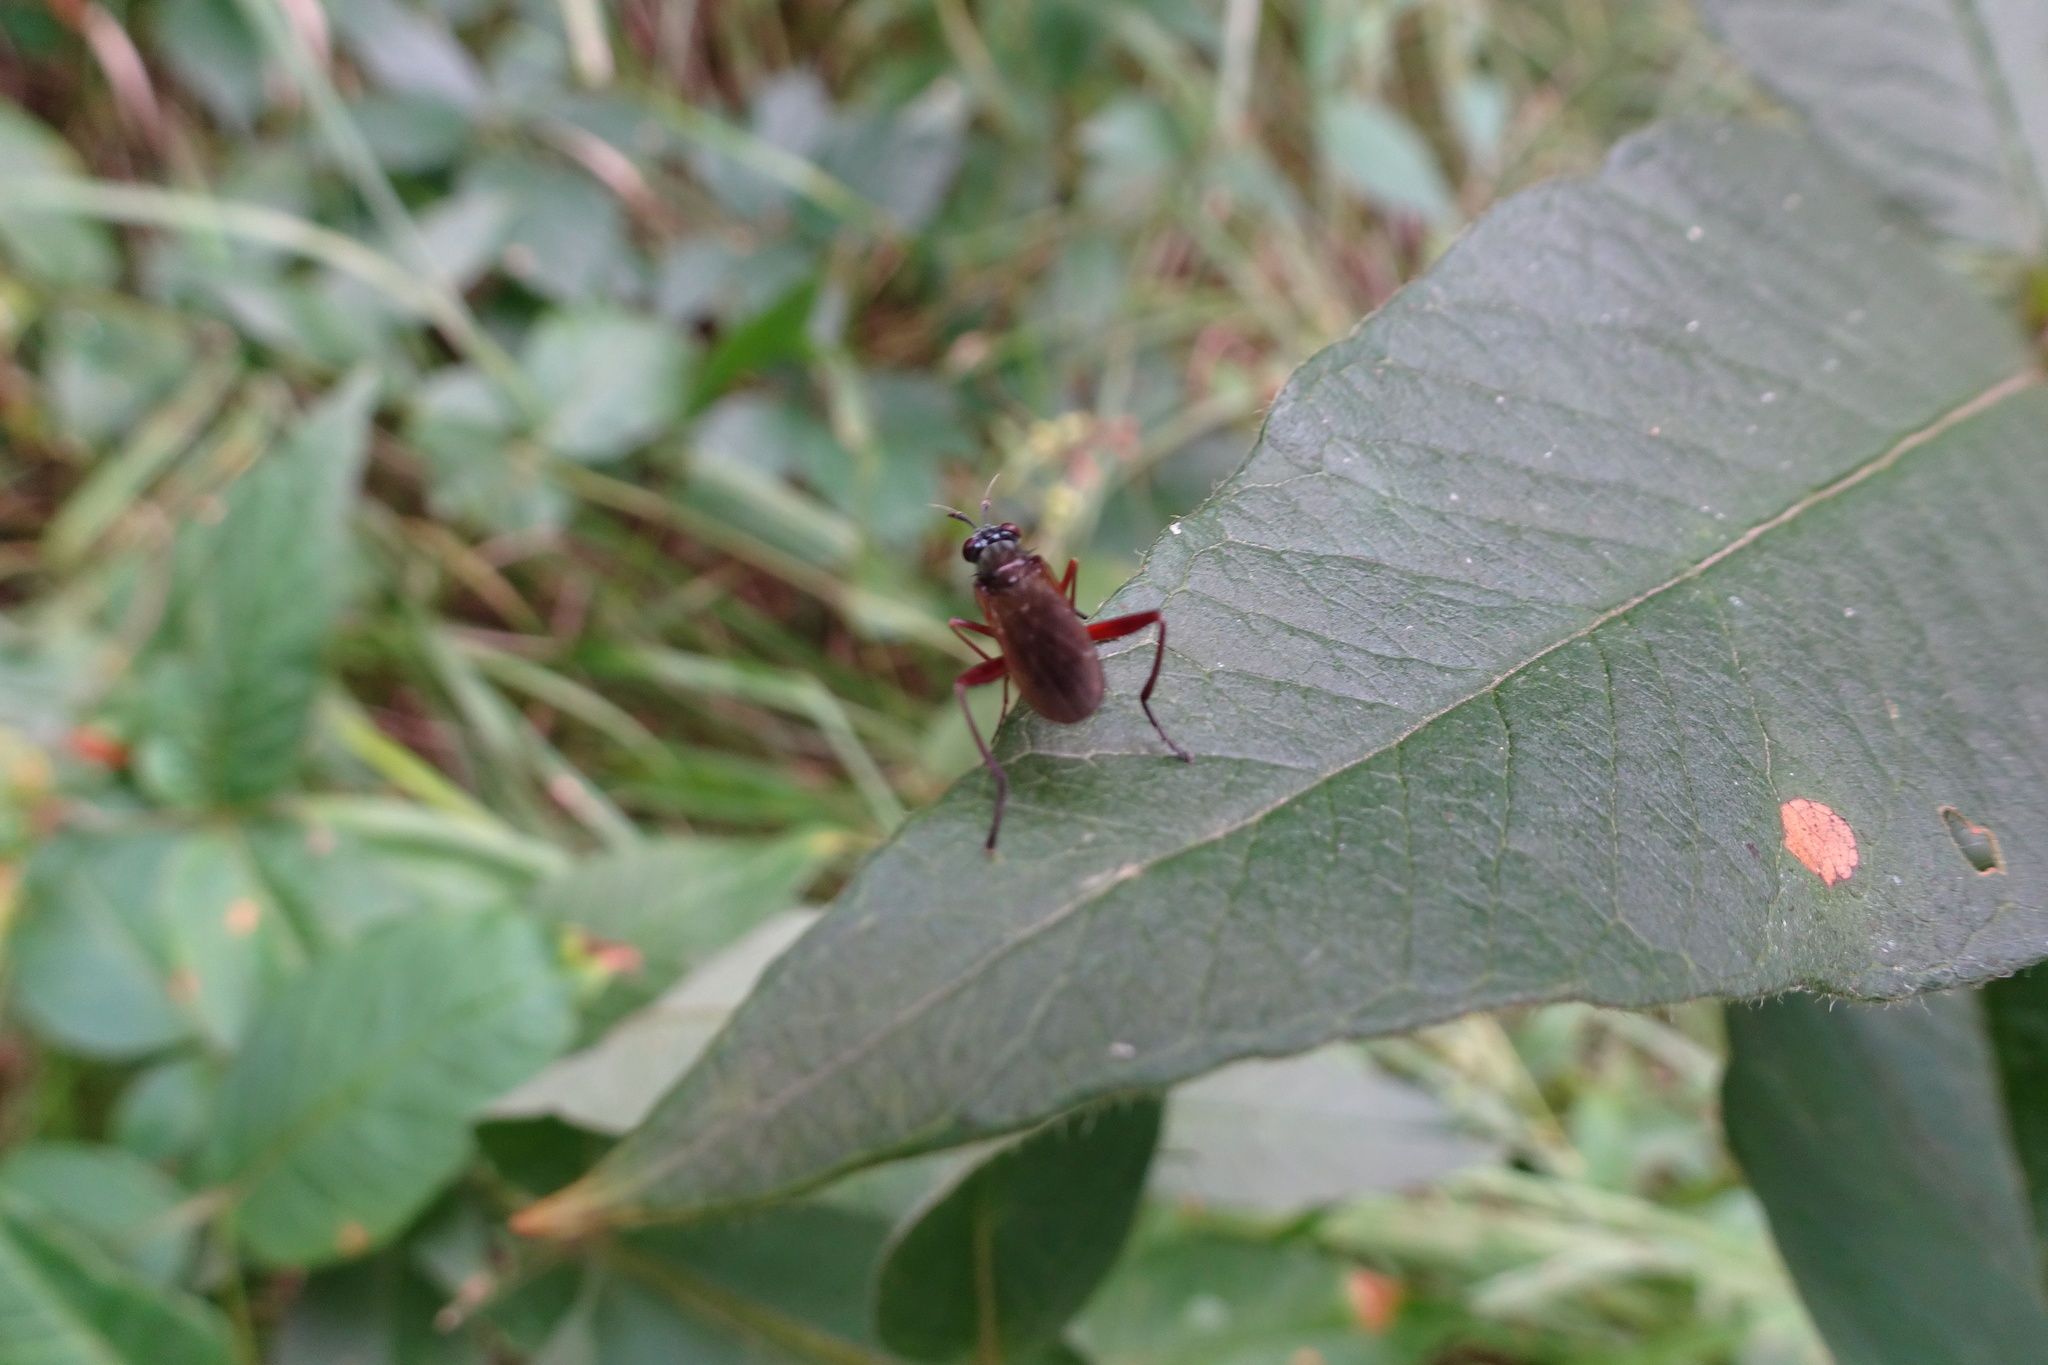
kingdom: Animalia
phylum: Arthropoda
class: Insecta
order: Diptera
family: Sciomyzidae
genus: Sepedon
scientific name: Sepedon sphegea
